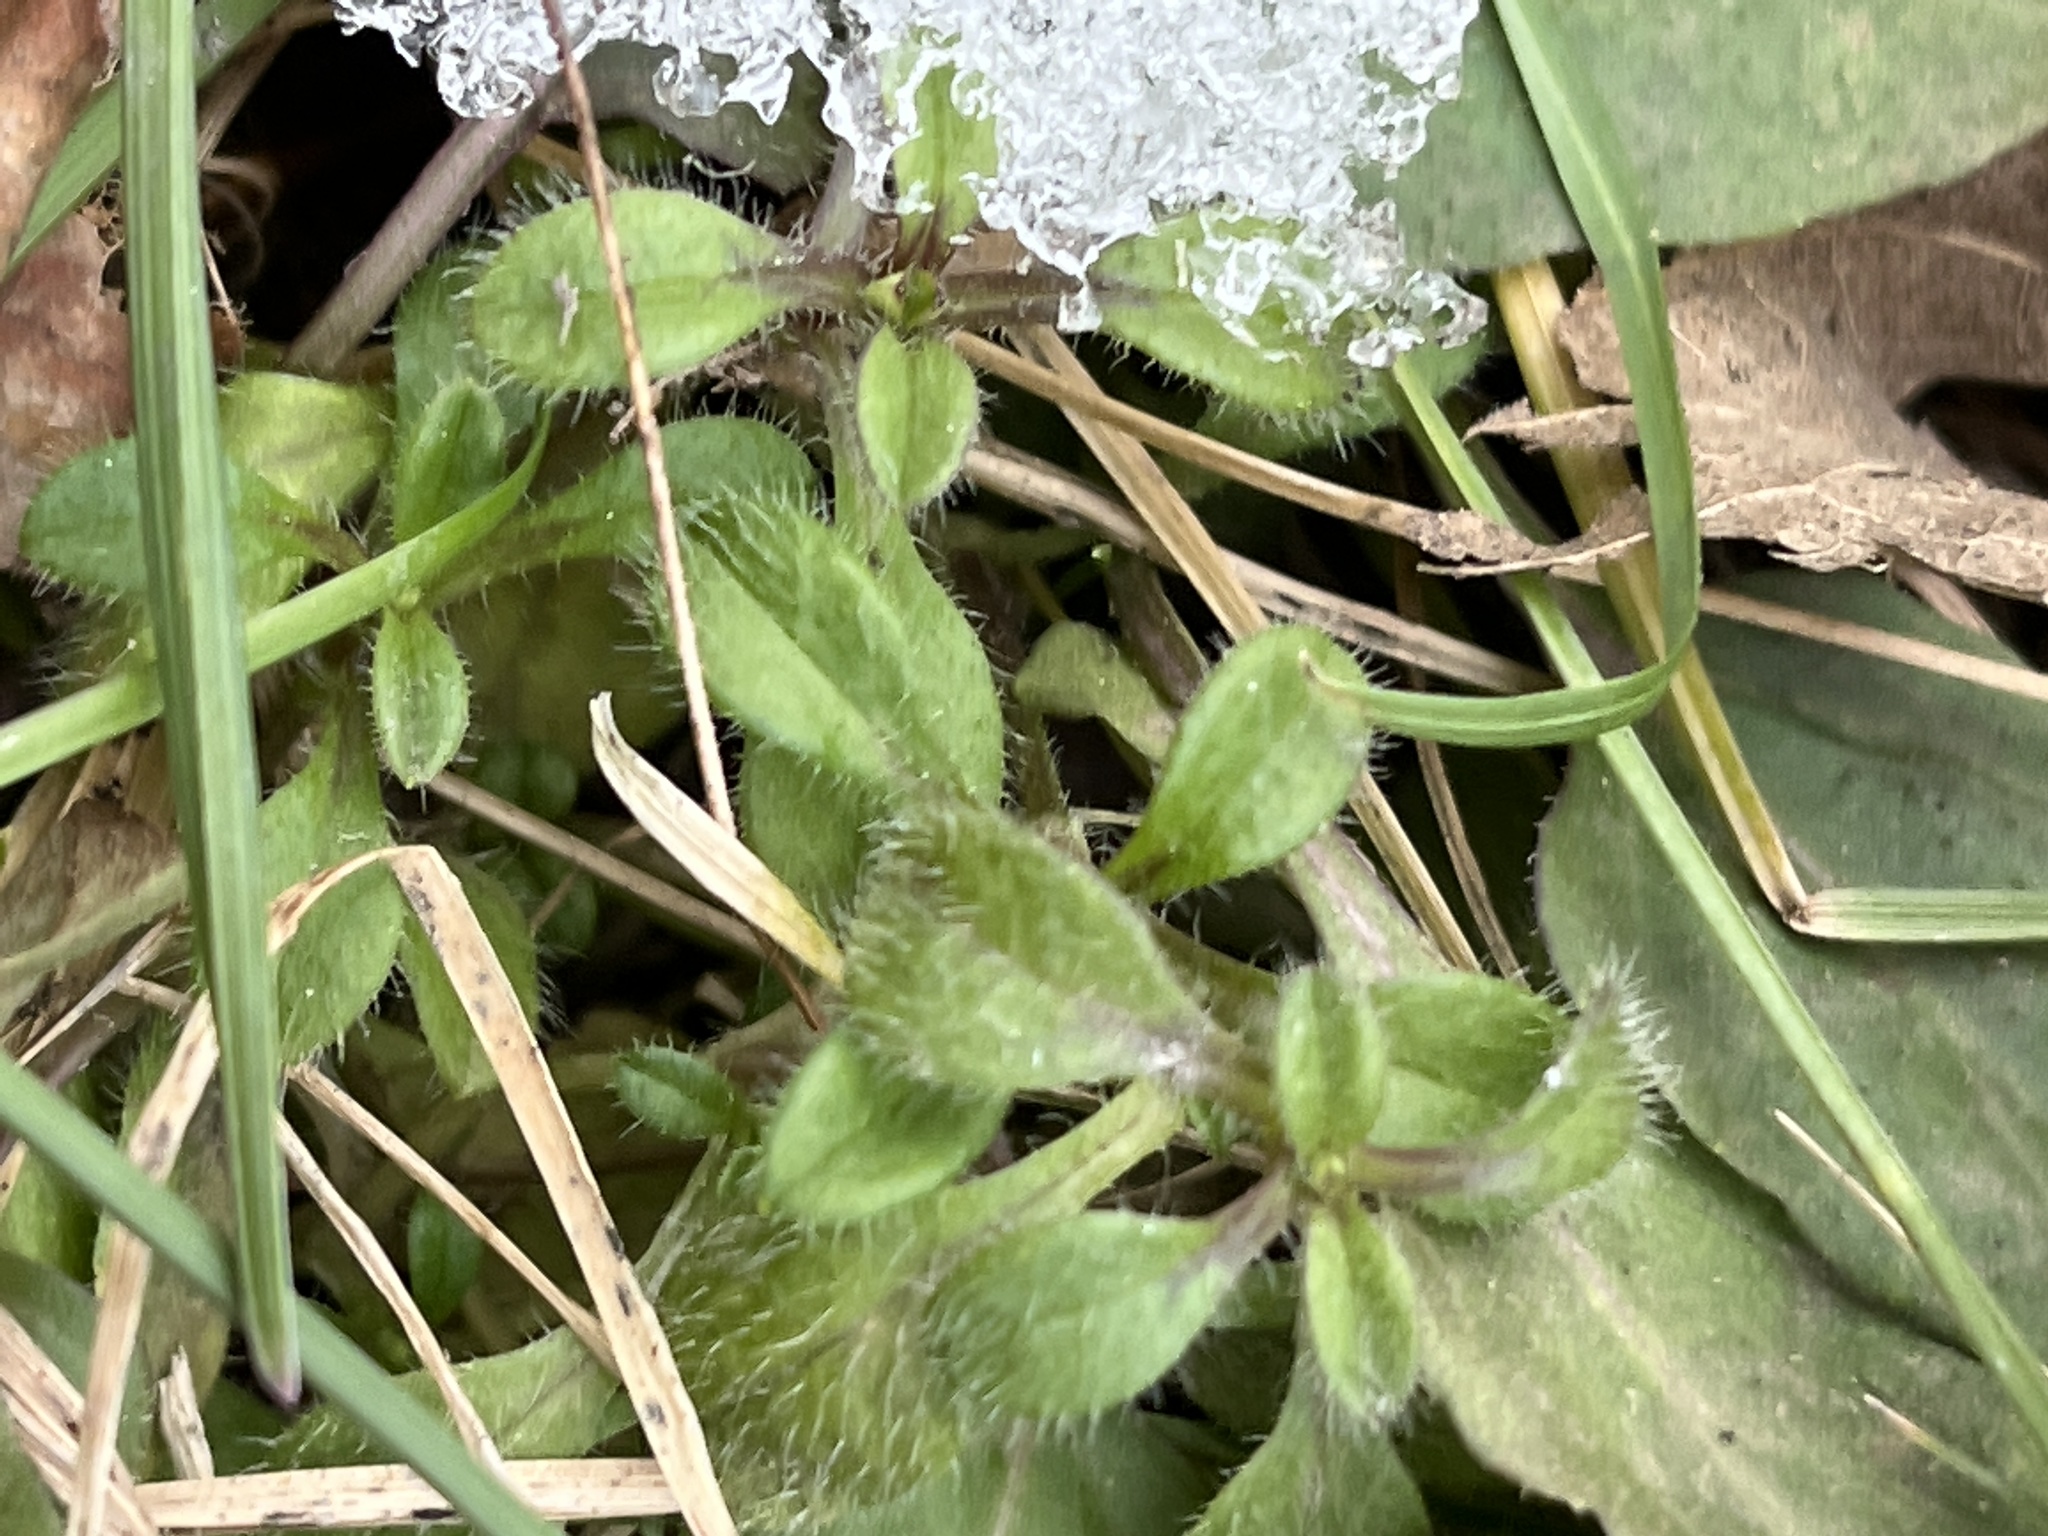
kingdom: Plantae
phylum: Tracheophyta
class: Magnoliopsida
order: Caryophyllales
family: Caryophyllaceae
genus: Cerastium
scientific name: Cerastium fontanum
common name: Common mouse-ear
